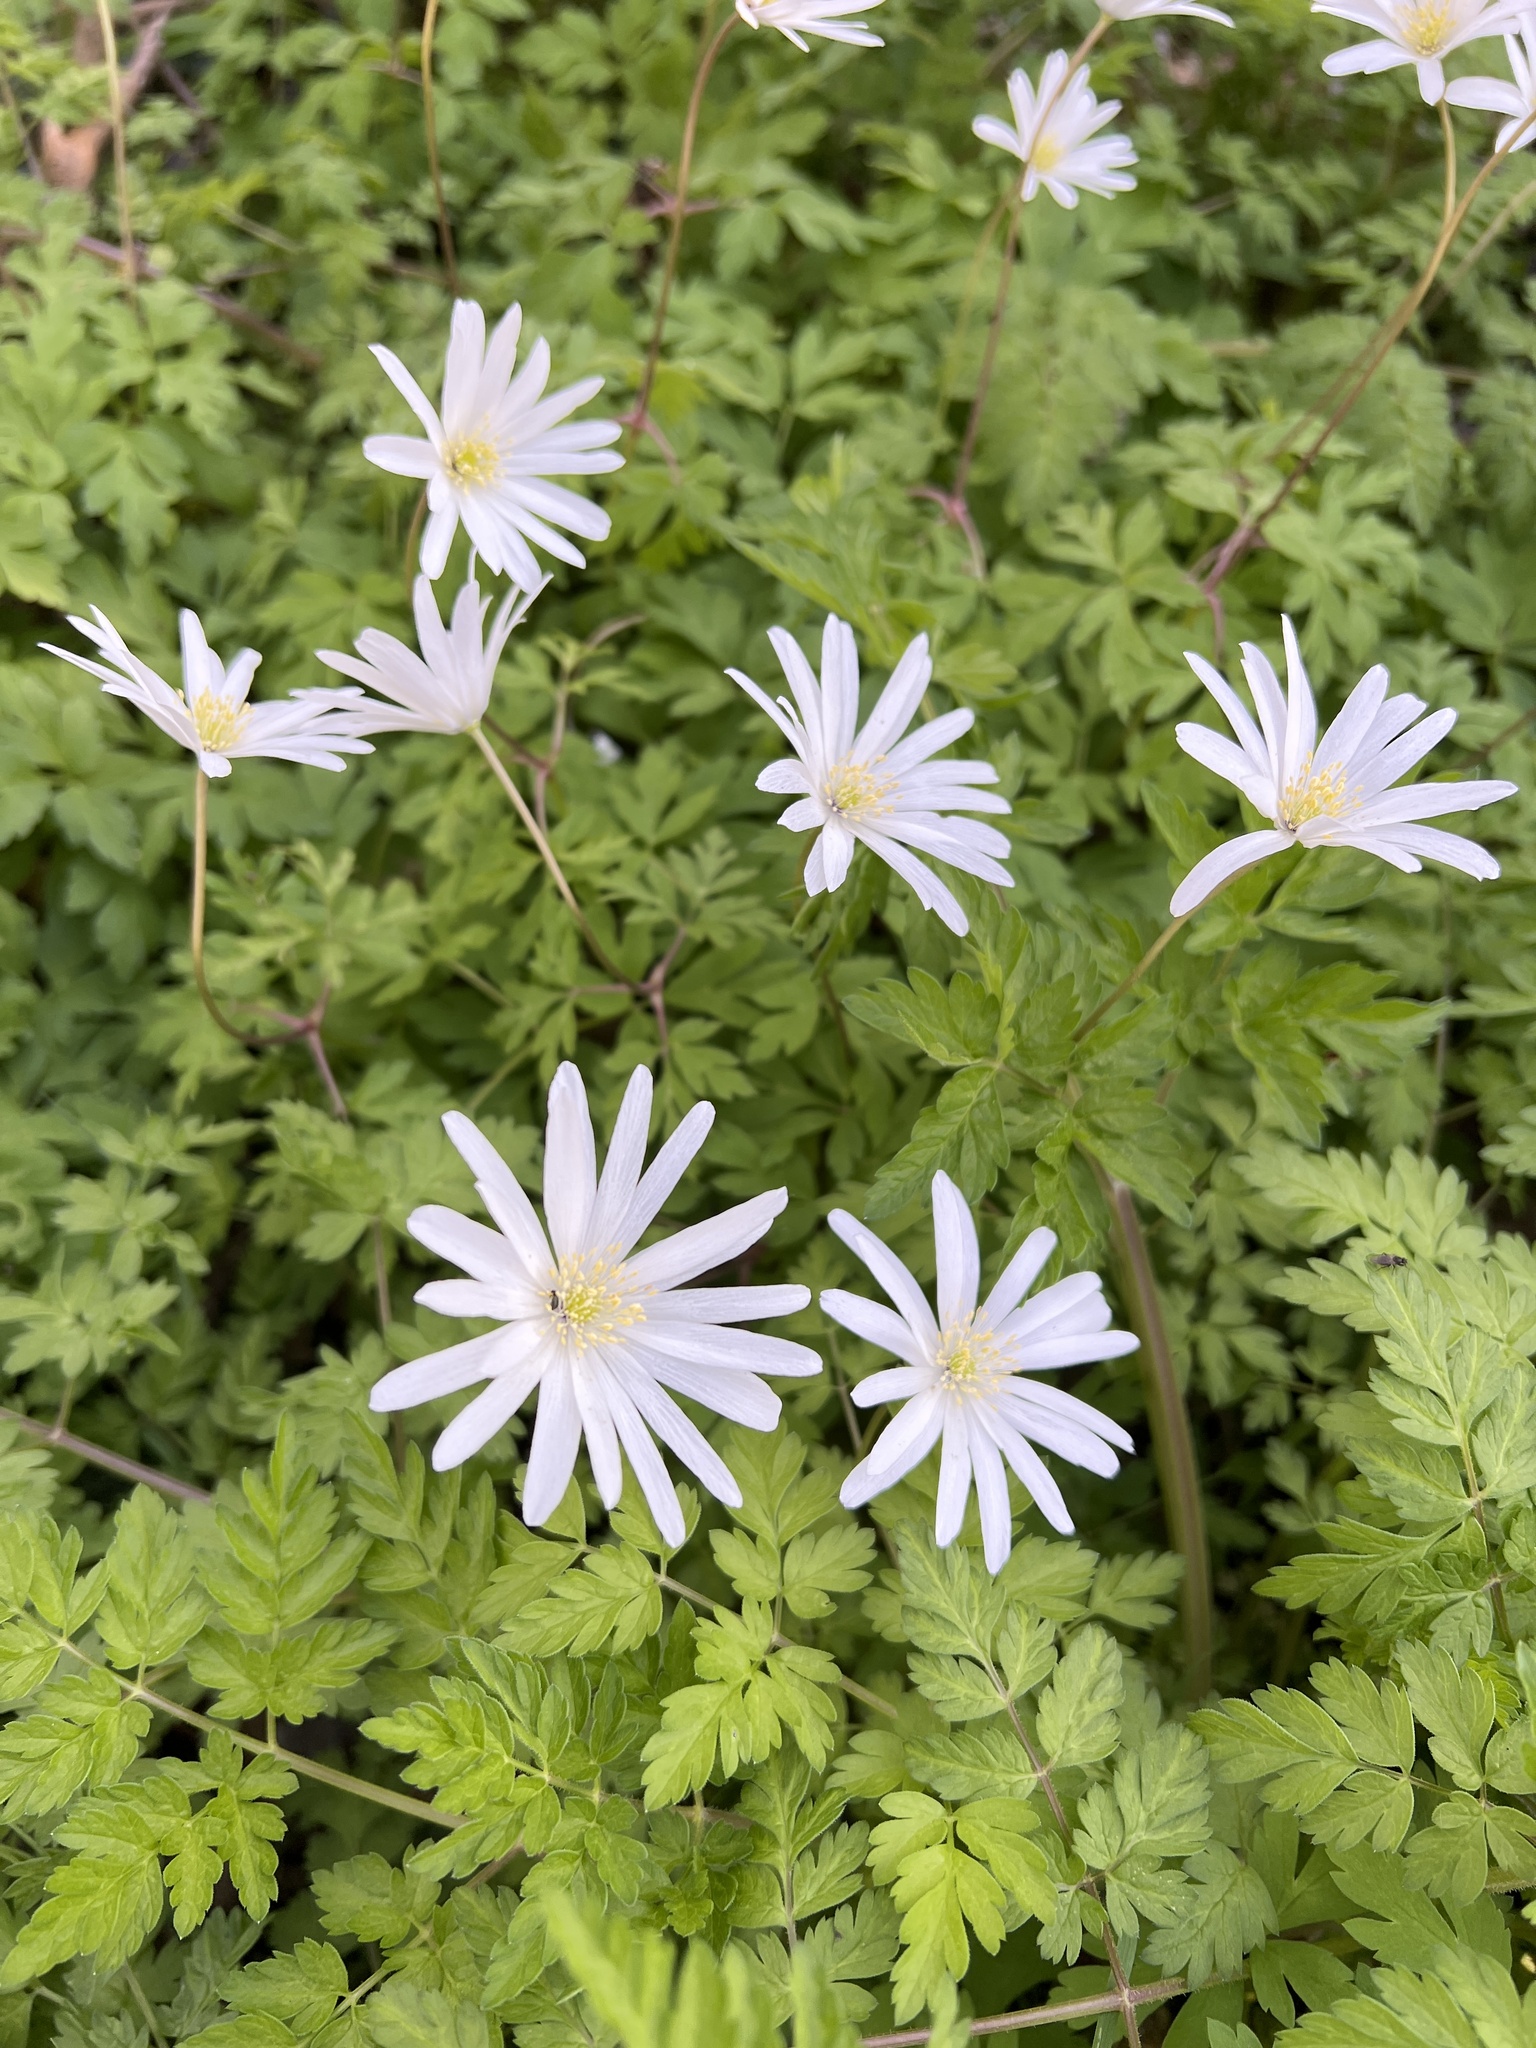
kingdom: Plantae
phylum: Tracheophyta
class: Magnoliopsida
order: Ranunculales
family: Ranunculaceae
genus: Anemone
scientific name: Anemone apennina
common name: Blue anemone
